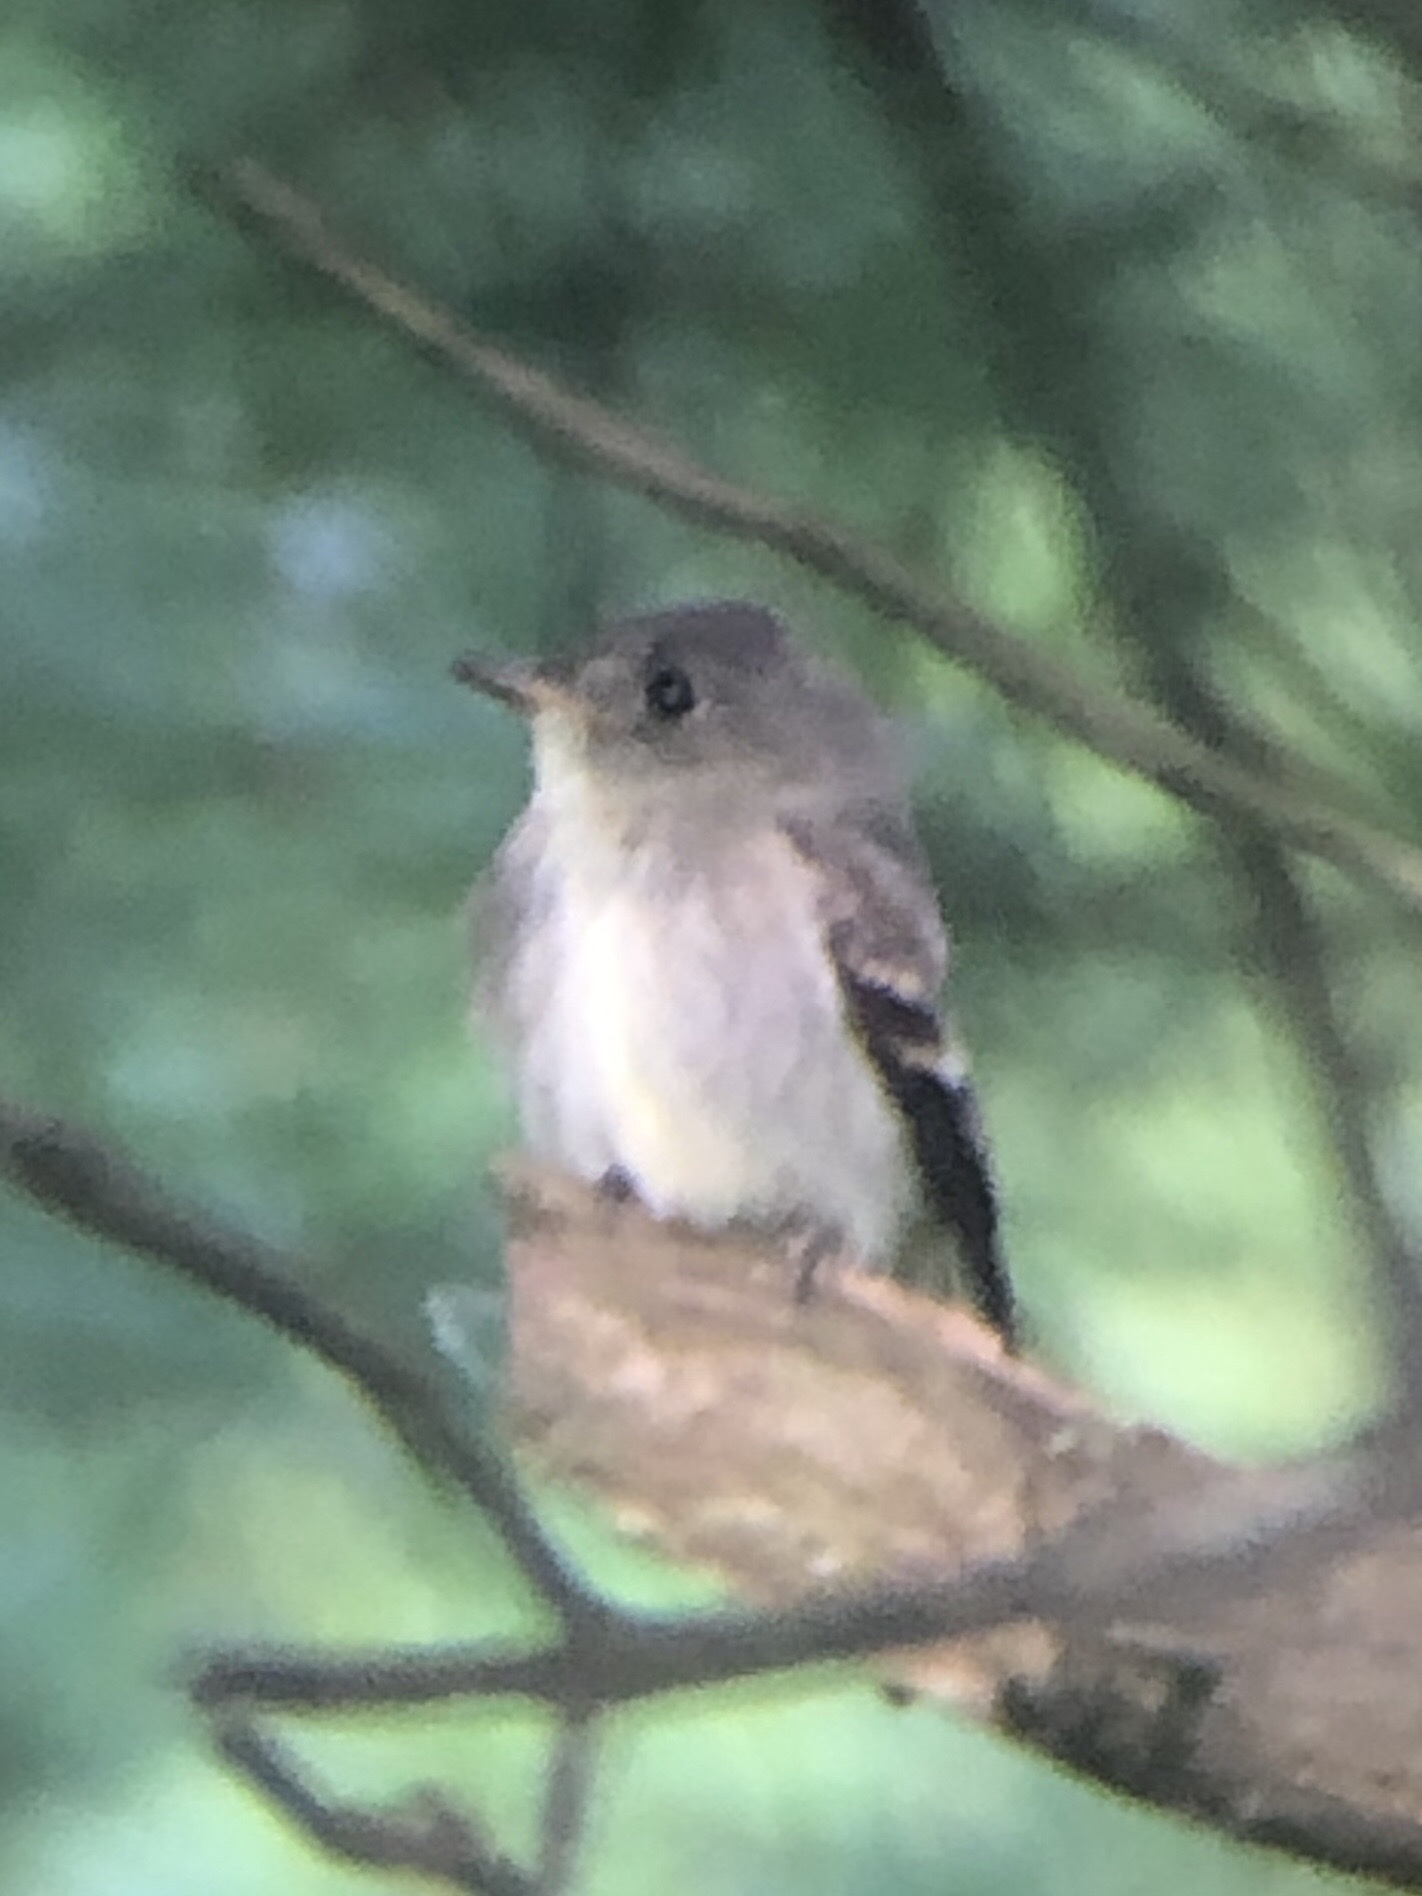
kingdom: Animalia
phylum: Chordata
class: Aves
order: Passeriformes
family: Tyrannidae
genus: Contopus
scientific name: Contopus virens
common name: Eastern wood-pewee
